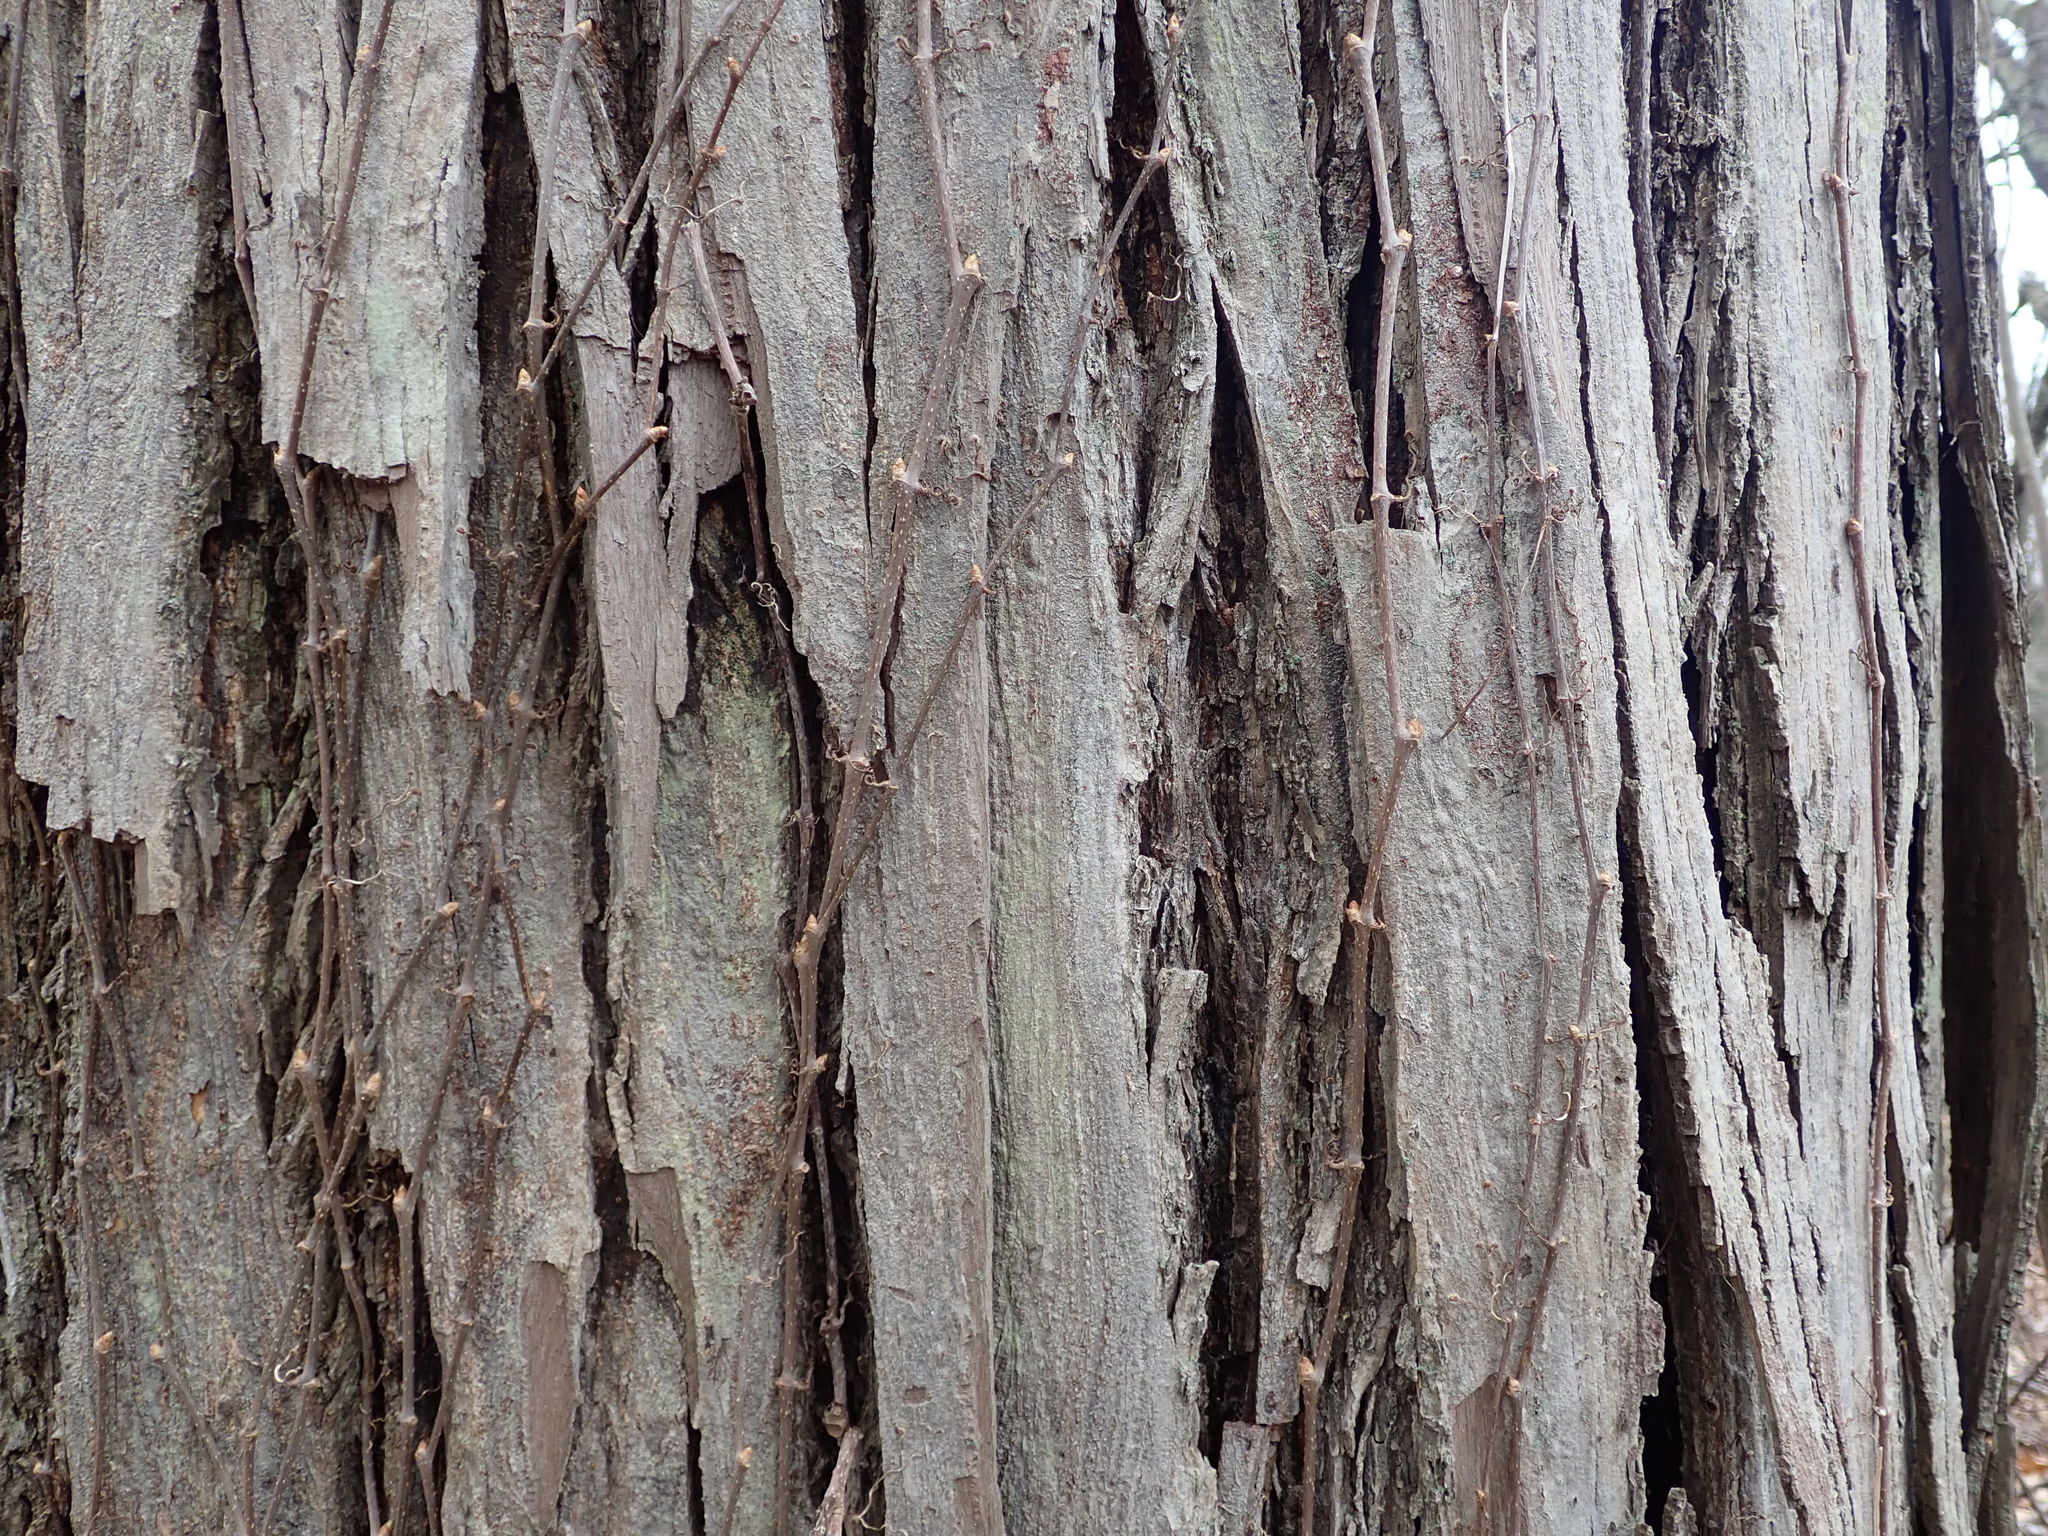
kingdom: Plantae
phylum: Tracheophyta
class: Magnoliopsida
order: Fagales
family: Juglandaceae
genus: Carya
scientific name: Carya ovata
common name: Shagbark hickory
